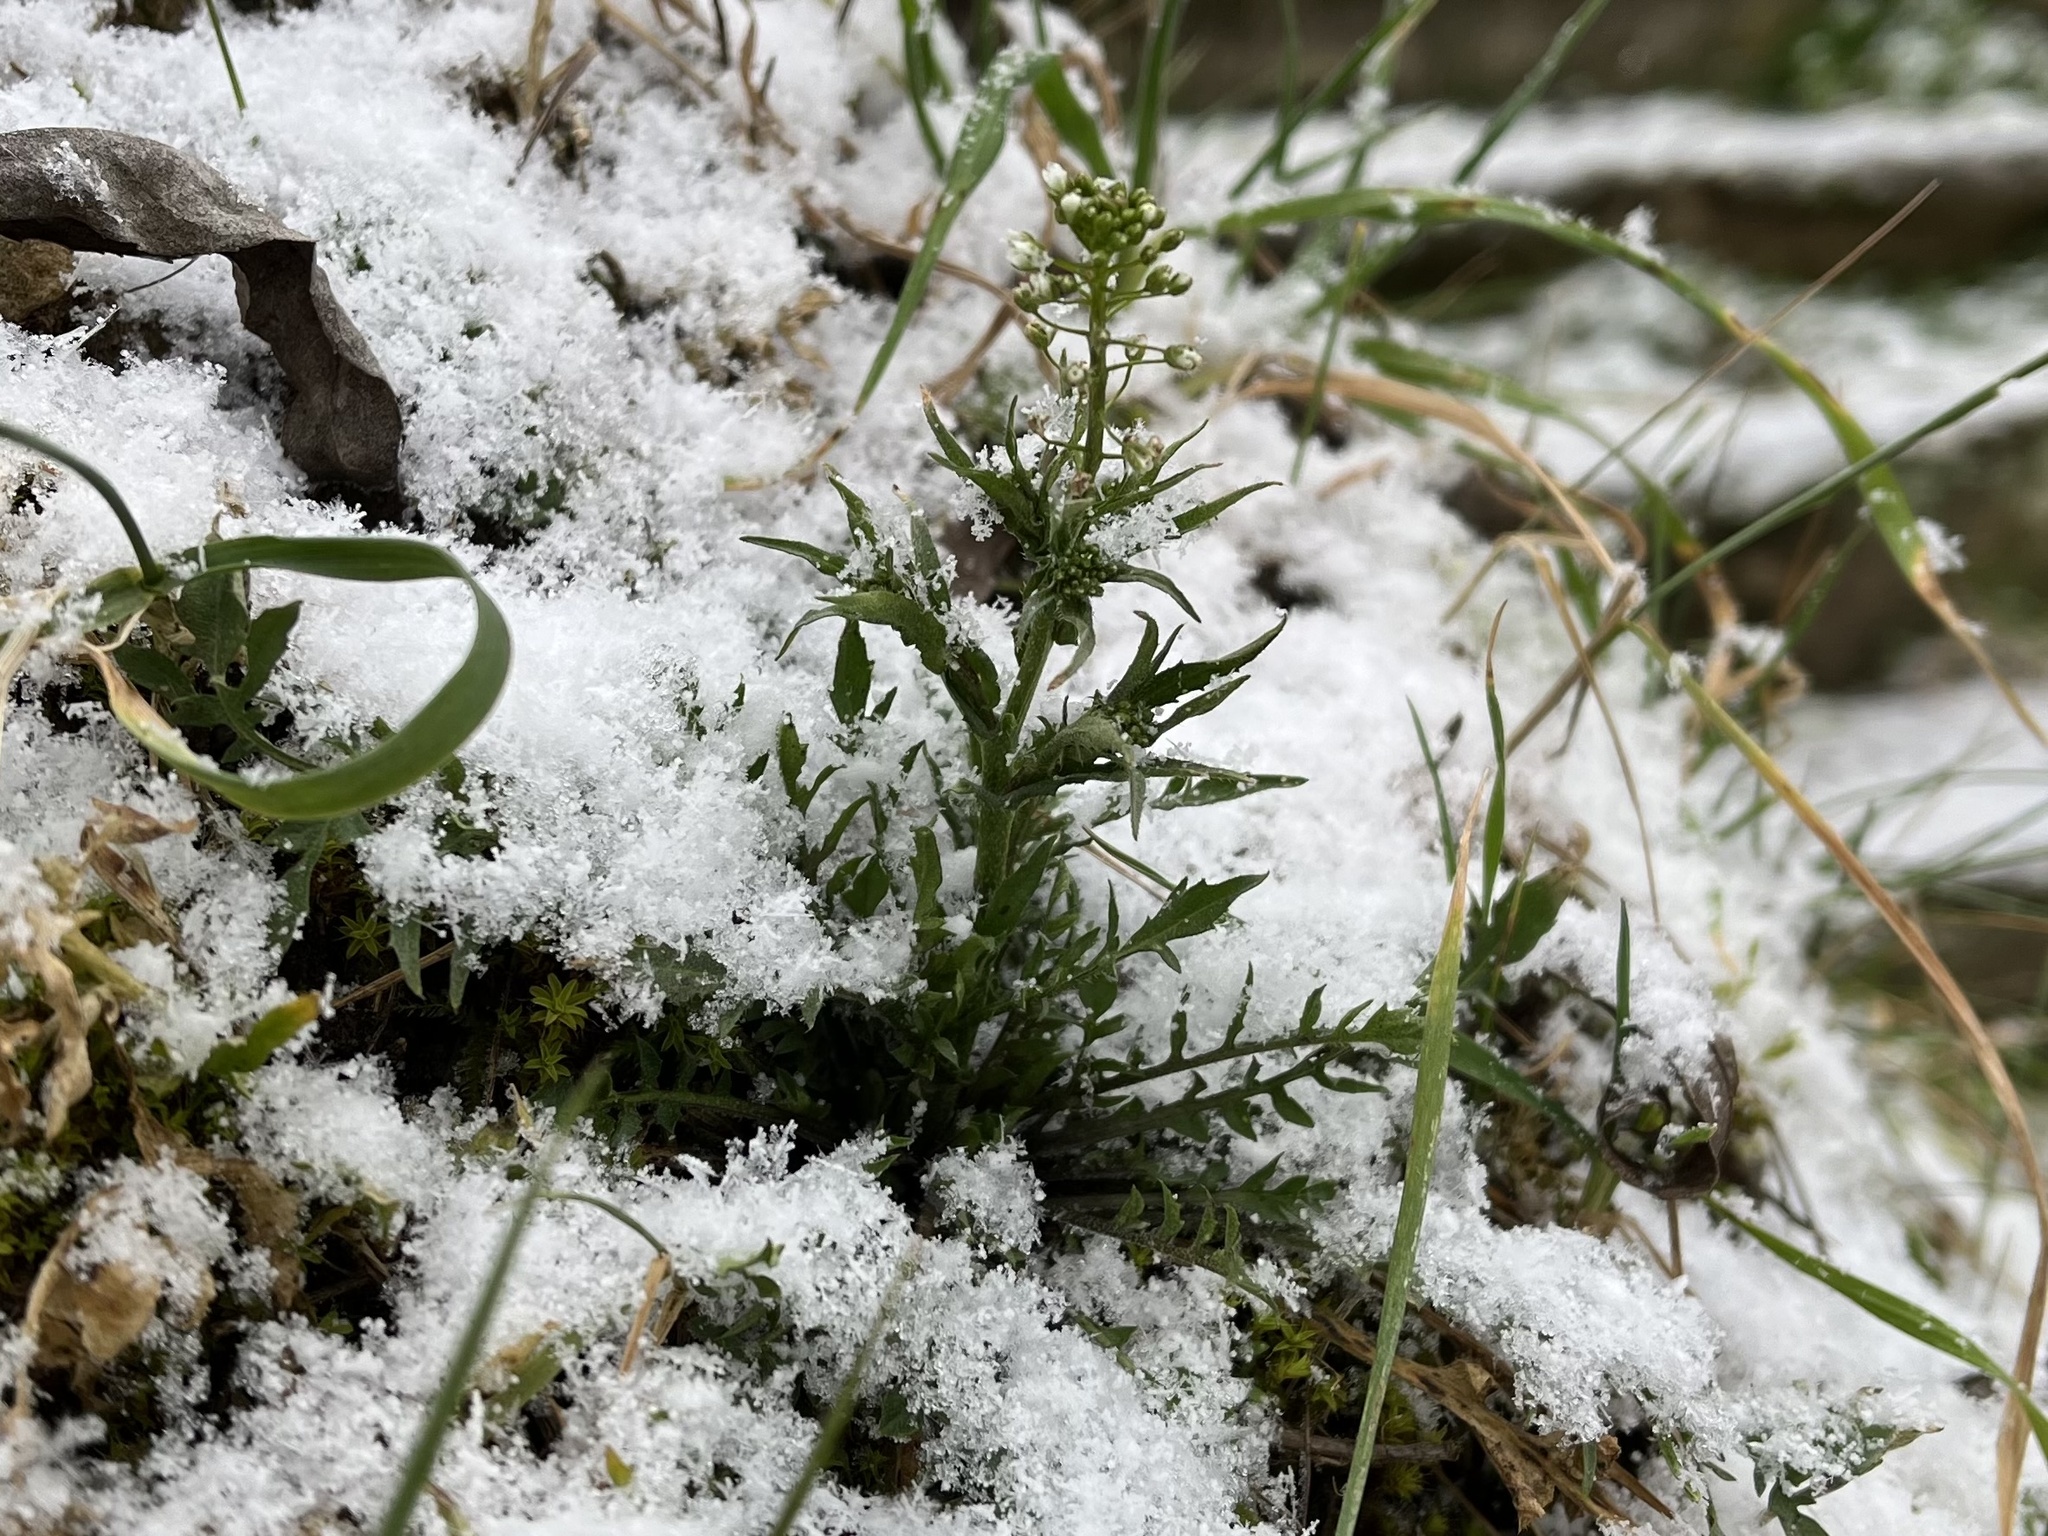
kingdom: Plantae
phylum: Tracheophyta
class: Magnoliopsida
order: Brassicales
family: Brassicaceae
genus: Capsella
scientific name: Capsella bursa-pastoris
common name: Shepherd's purse
